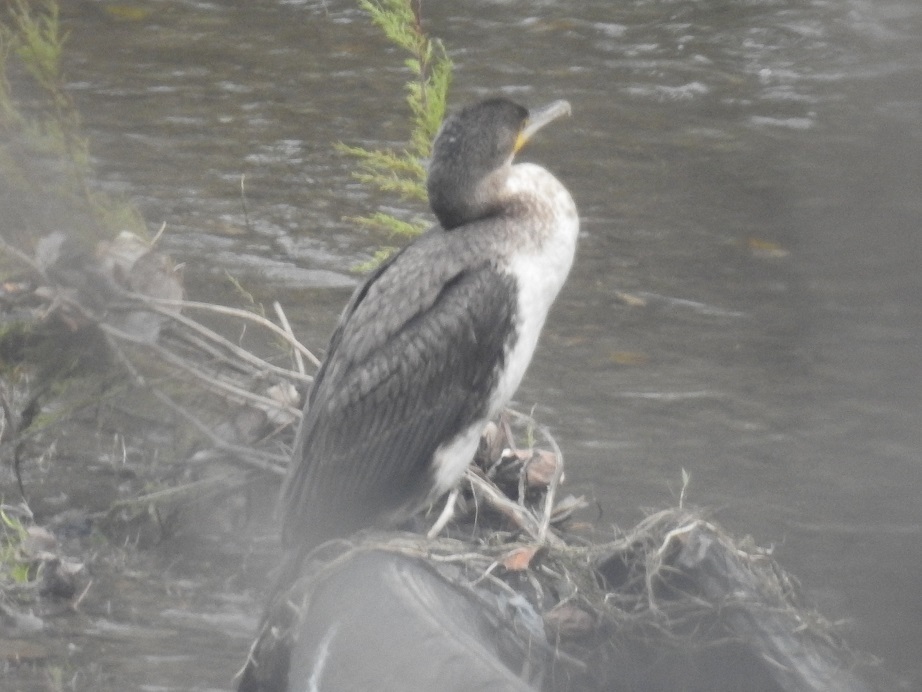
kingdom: Animalia
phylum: Chordata
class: Aves
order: Suliformes
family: Phalacrocoracidae
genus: Phalacrocorax
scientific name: Phalacrocorax carbo
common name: Great cormorant
